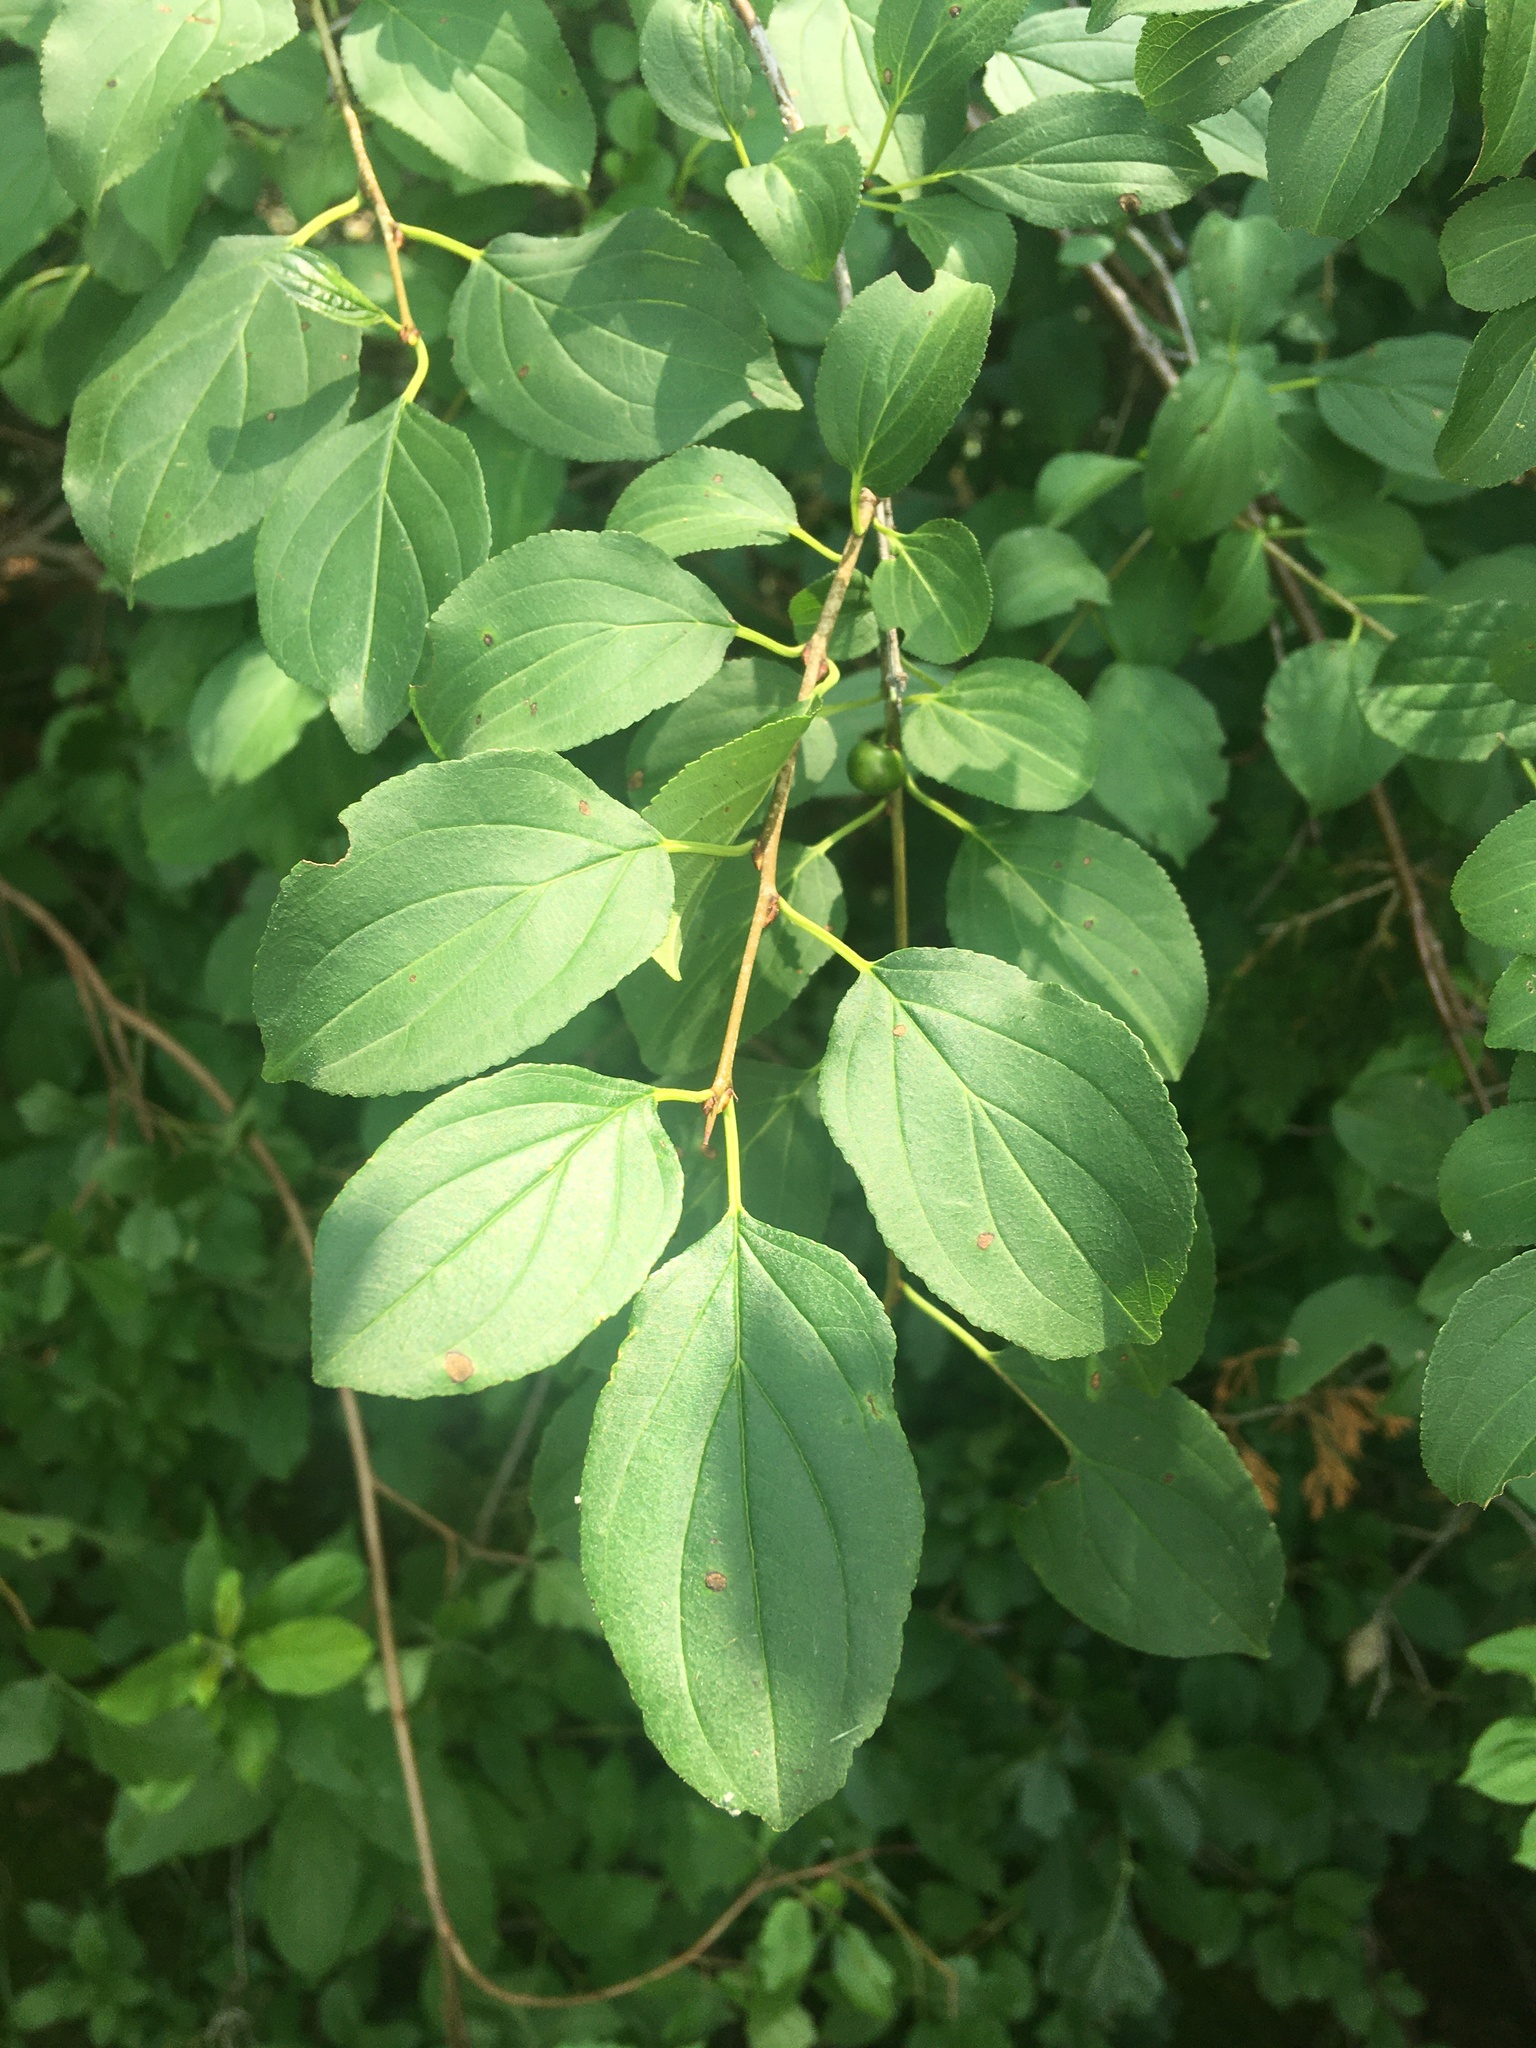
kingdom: Plantae
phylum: Tracheophyta
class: Magnoliopsida
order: Rosales
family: Rhamnaceae
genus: Rhamnus
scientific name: Rhamnus cathartica
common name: Common buckthorn
